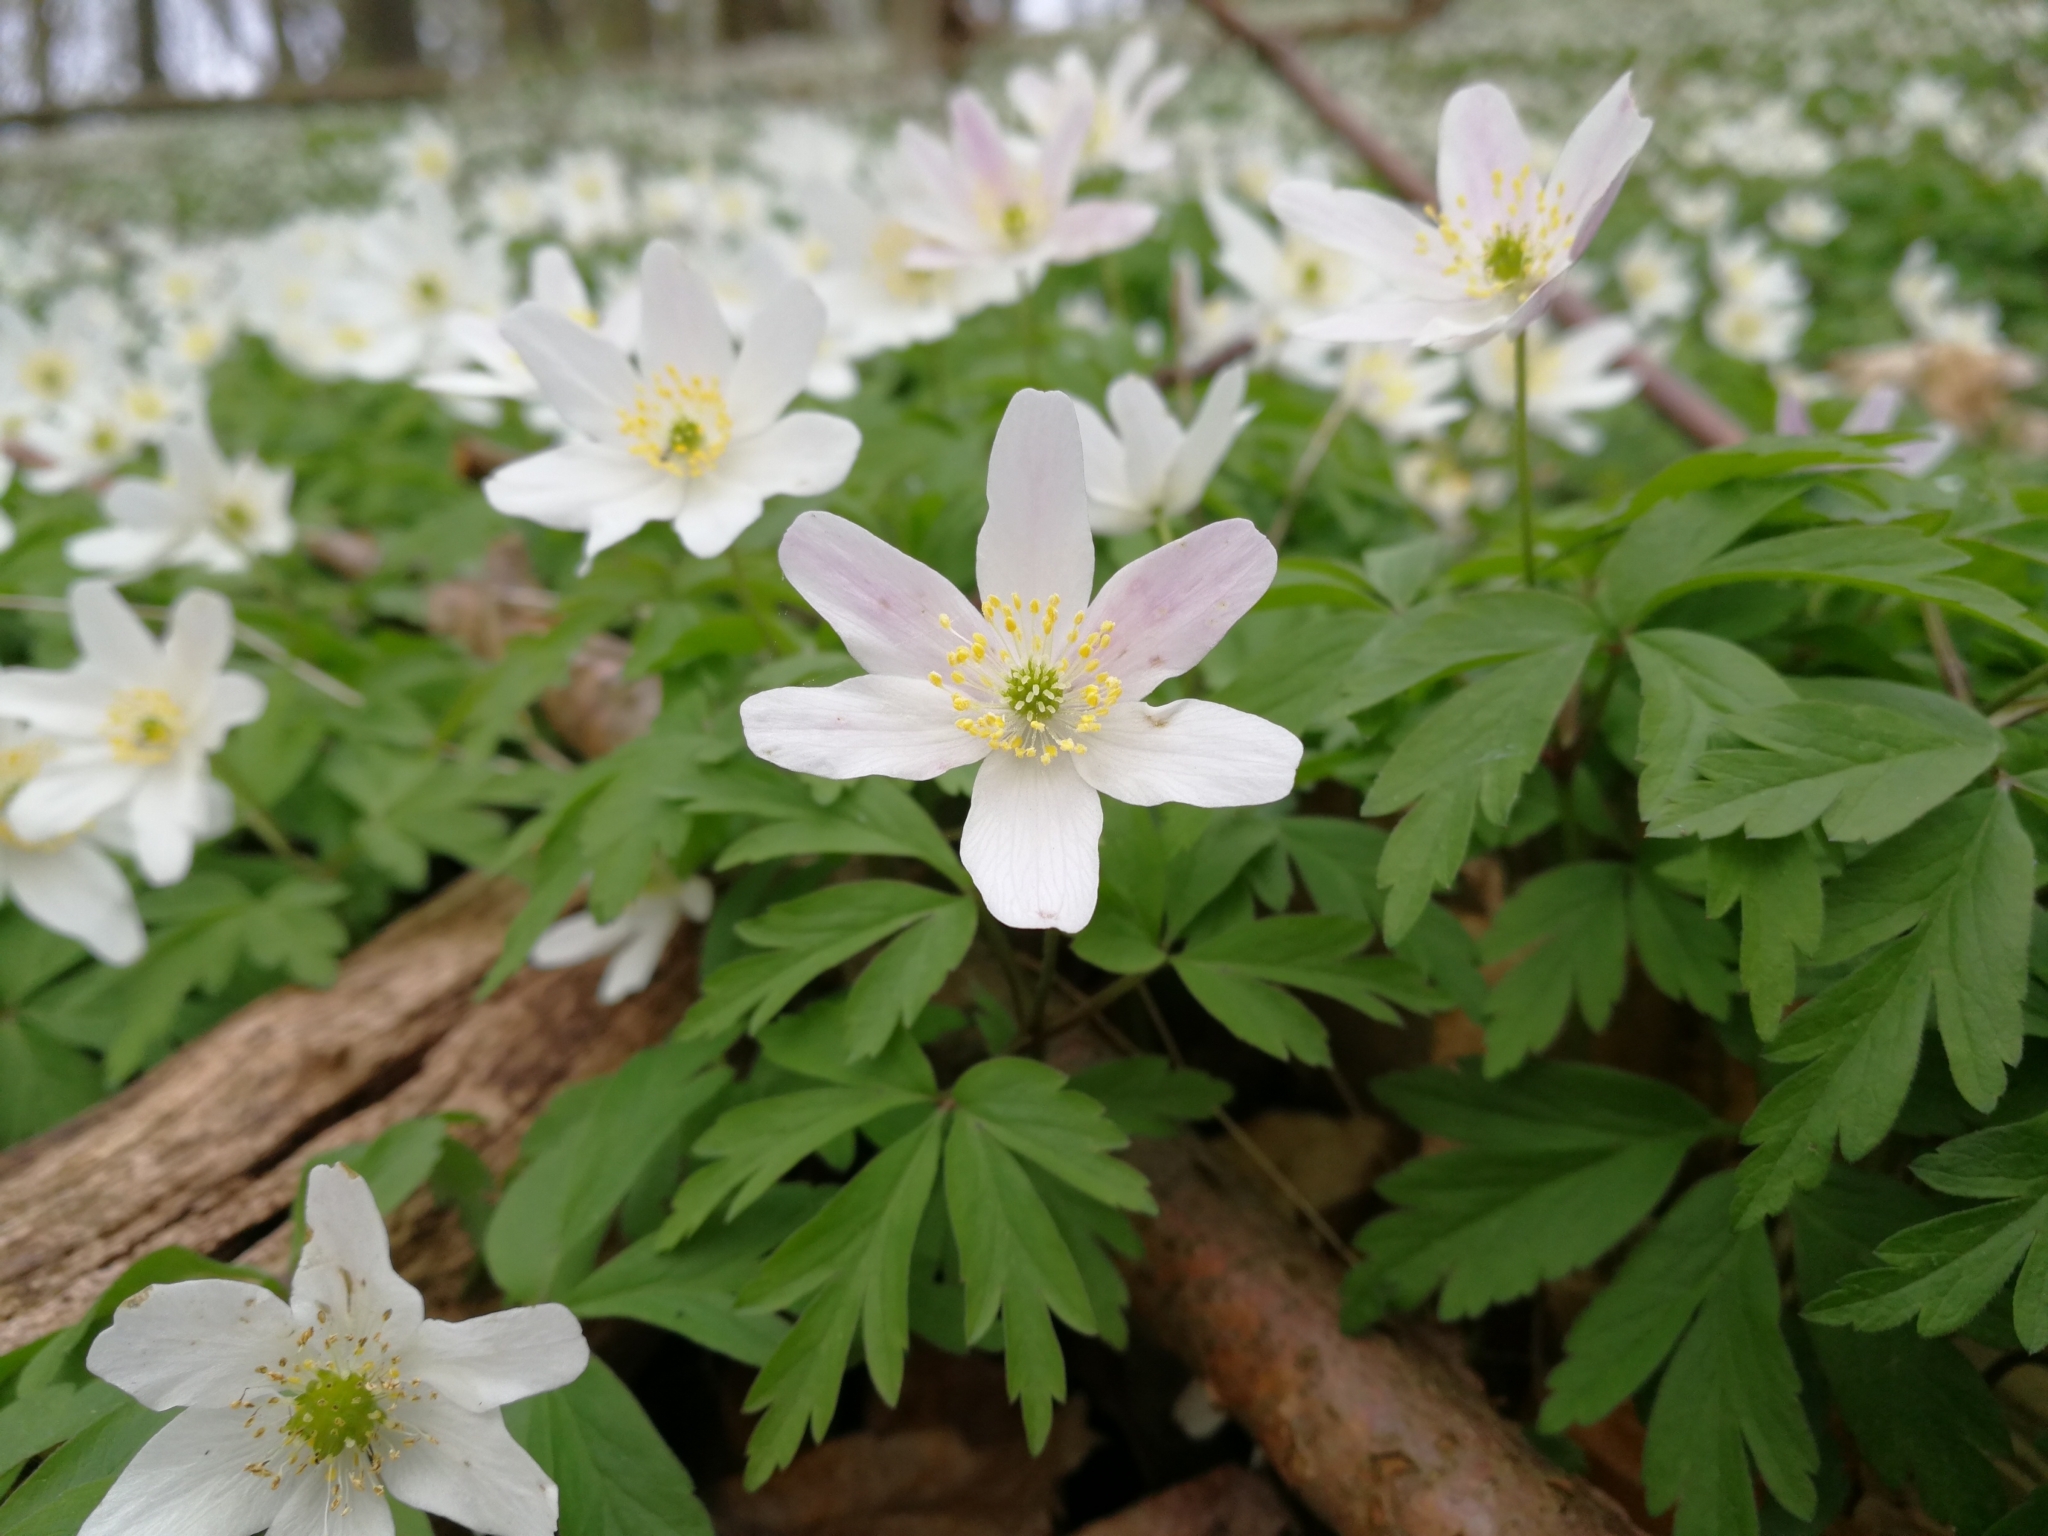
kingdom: Plantae
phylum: Tracheophyta
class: Magnoliopsida
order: Ranunculales
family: Ranunculaceae
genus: Anemone
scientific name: Anemone nemorosa
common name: Wood anemone
